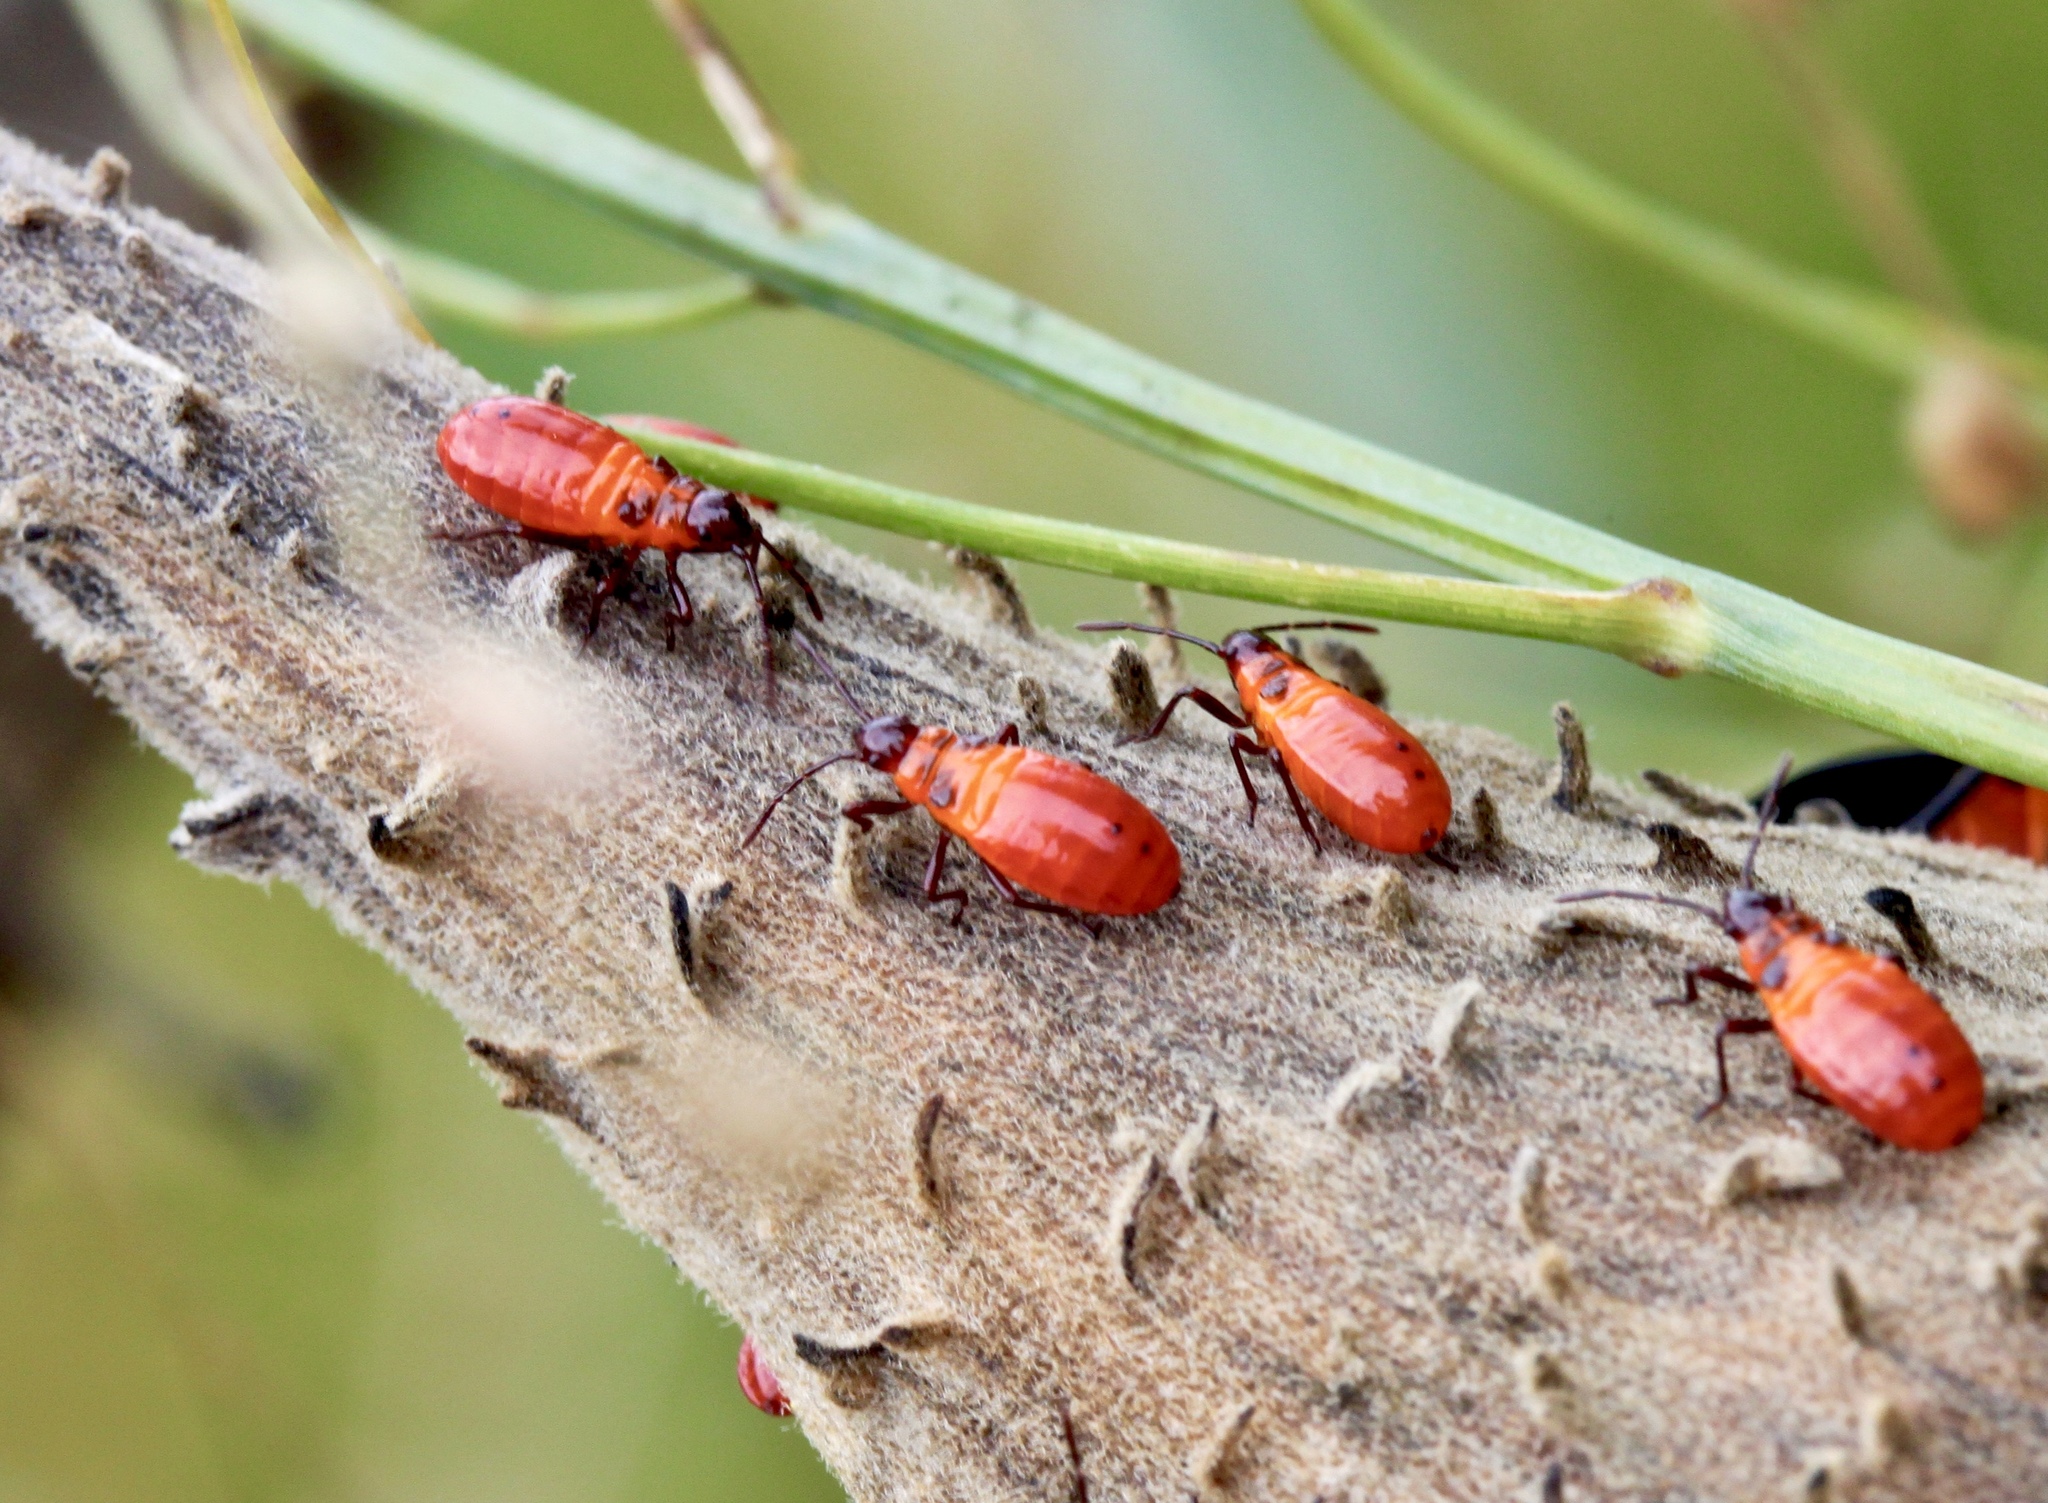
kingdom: Animalia
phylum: Arthropoda
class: Insecta
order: Hemiptera
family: Lygaeidae
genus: Oncopeltus
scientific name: Oncopeltus fasciatus
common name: Large milkweed bug
